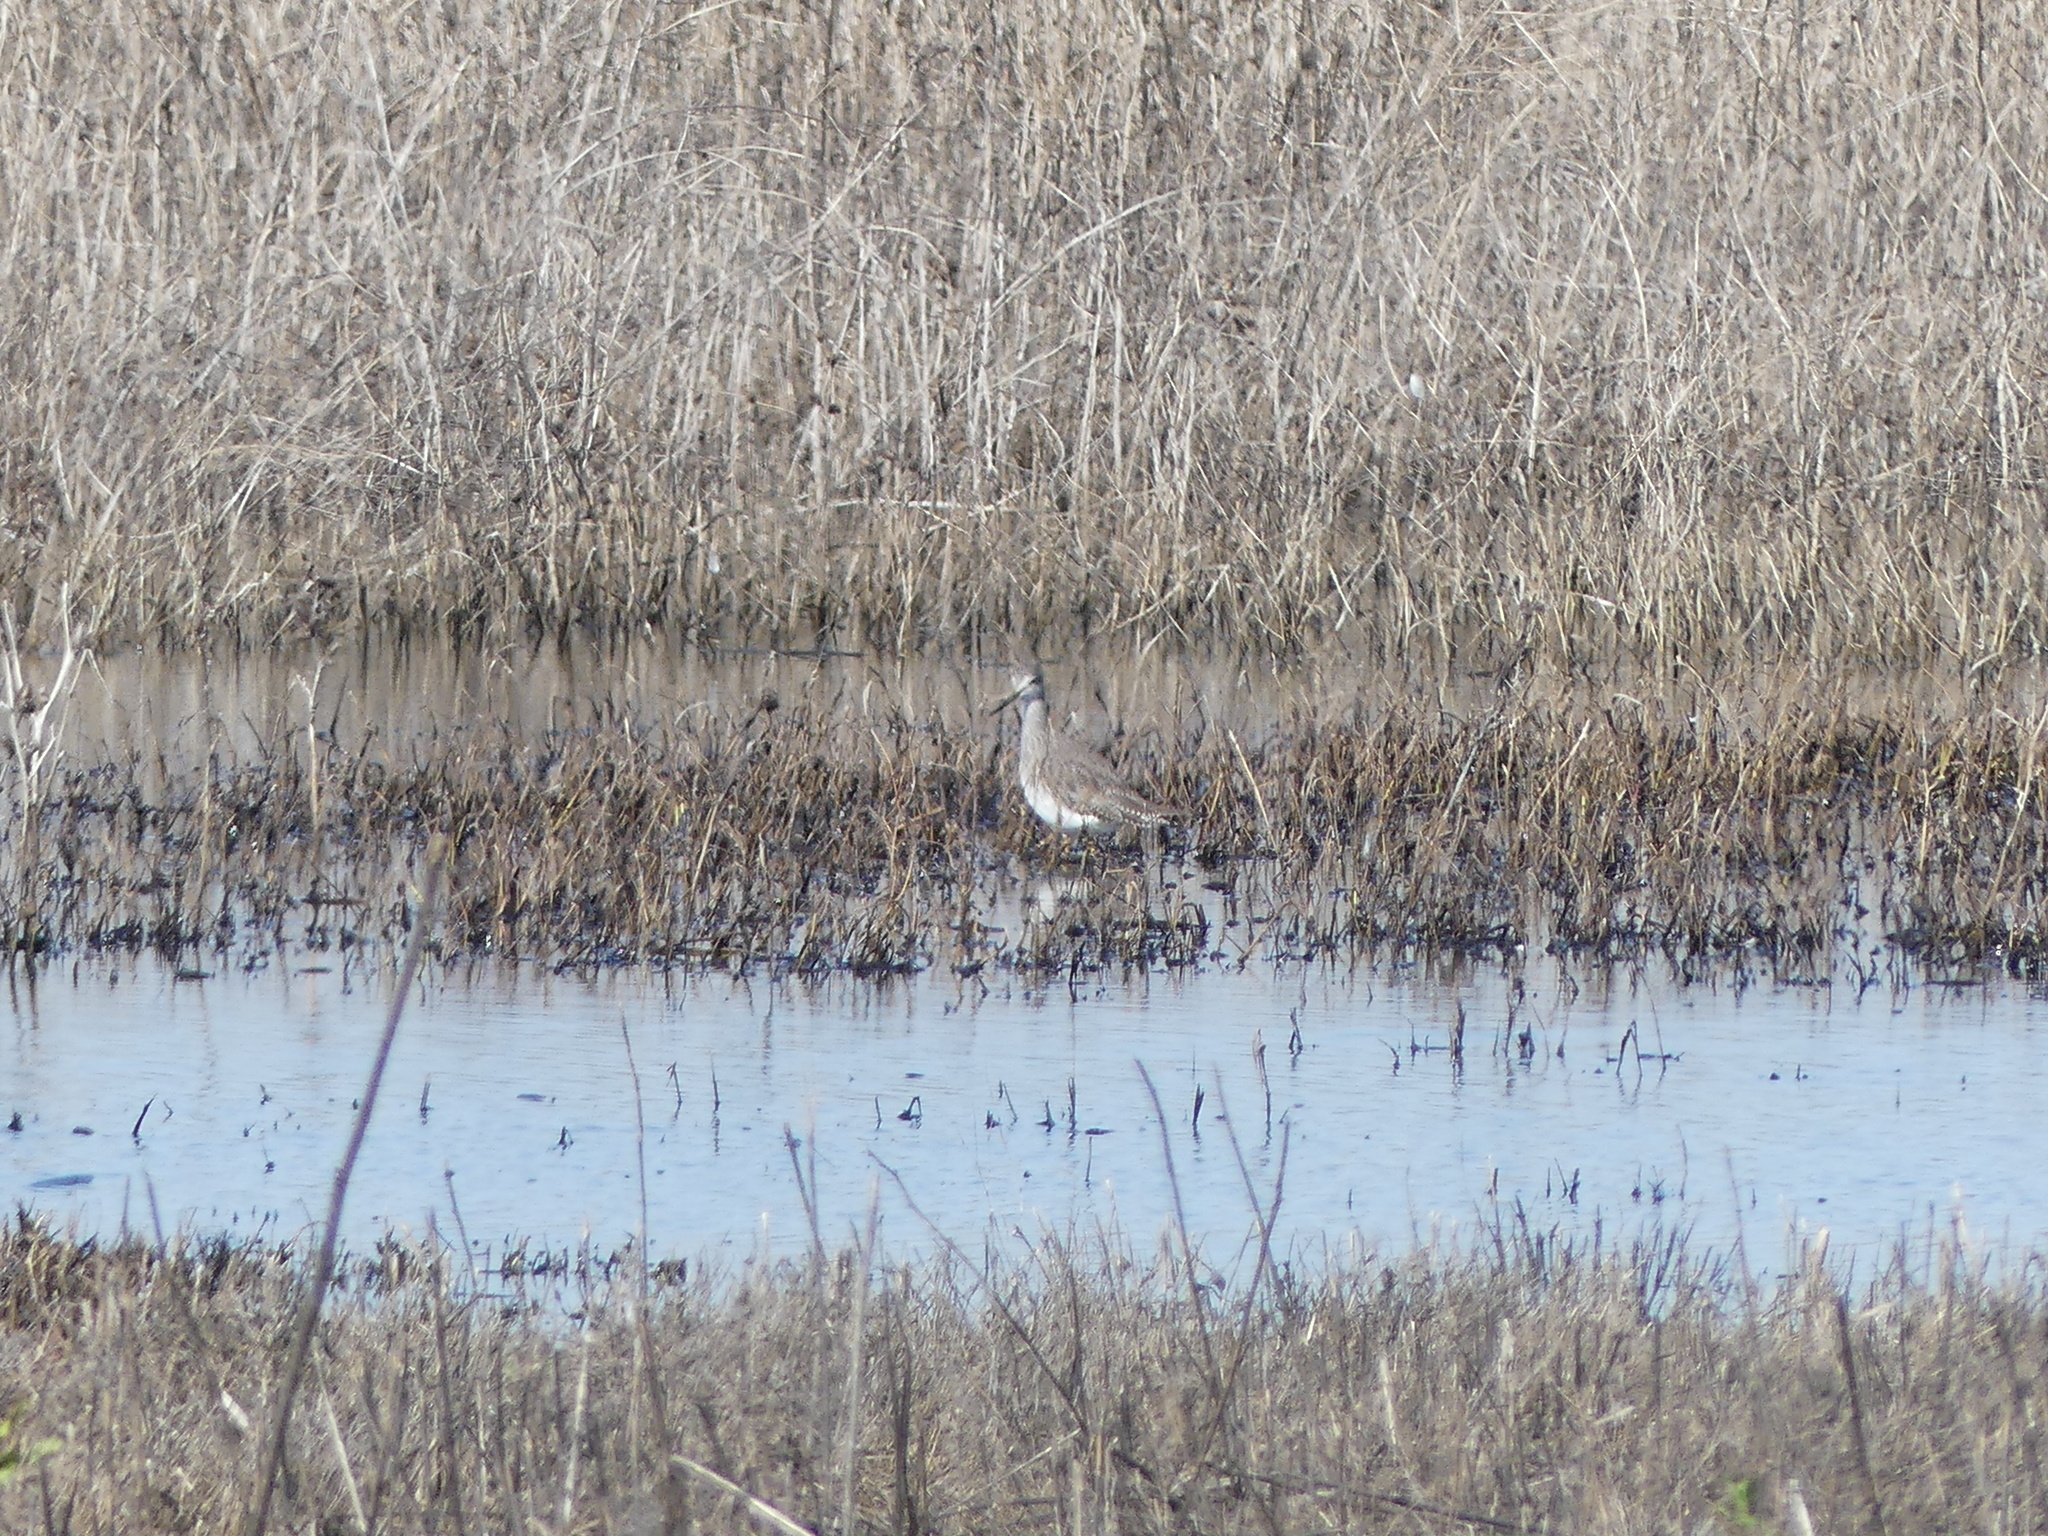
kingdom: Animalia
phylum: Chordata
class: Aves
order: Charadriiformes
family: Scolopacidae
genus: Tringa
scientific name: Tringa melanoleuca
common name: Greater yellowlegs
